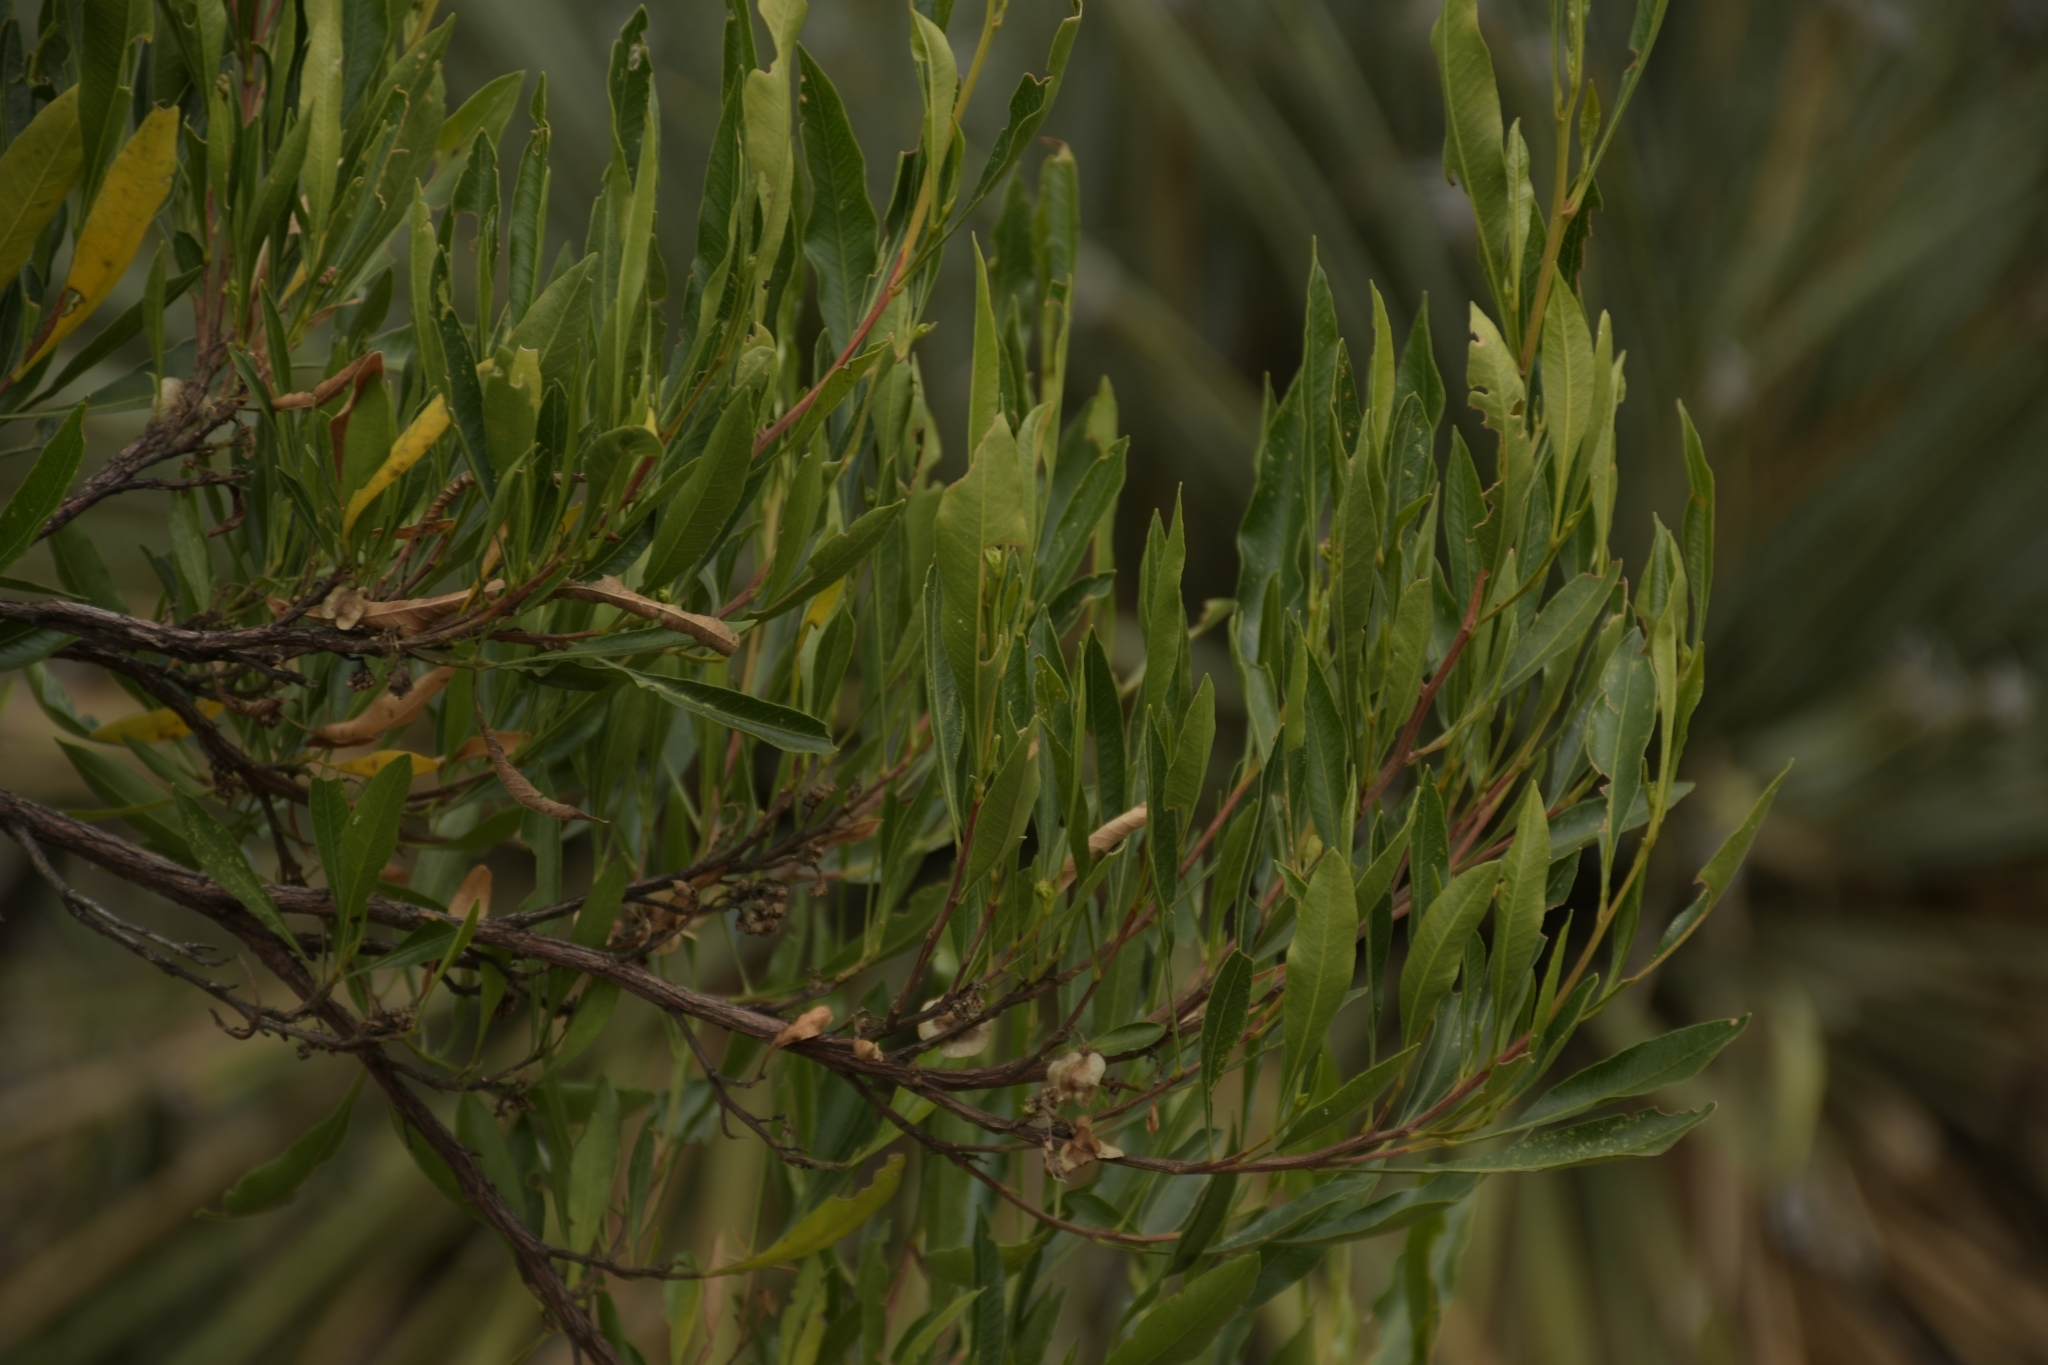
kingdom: Plantae
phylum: Tracheophyta
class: Magnoliopsida
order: Sapindales
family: Sapindaceae
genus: Dodonaea
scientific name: Dodonaea viscosa
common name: Hopbush
